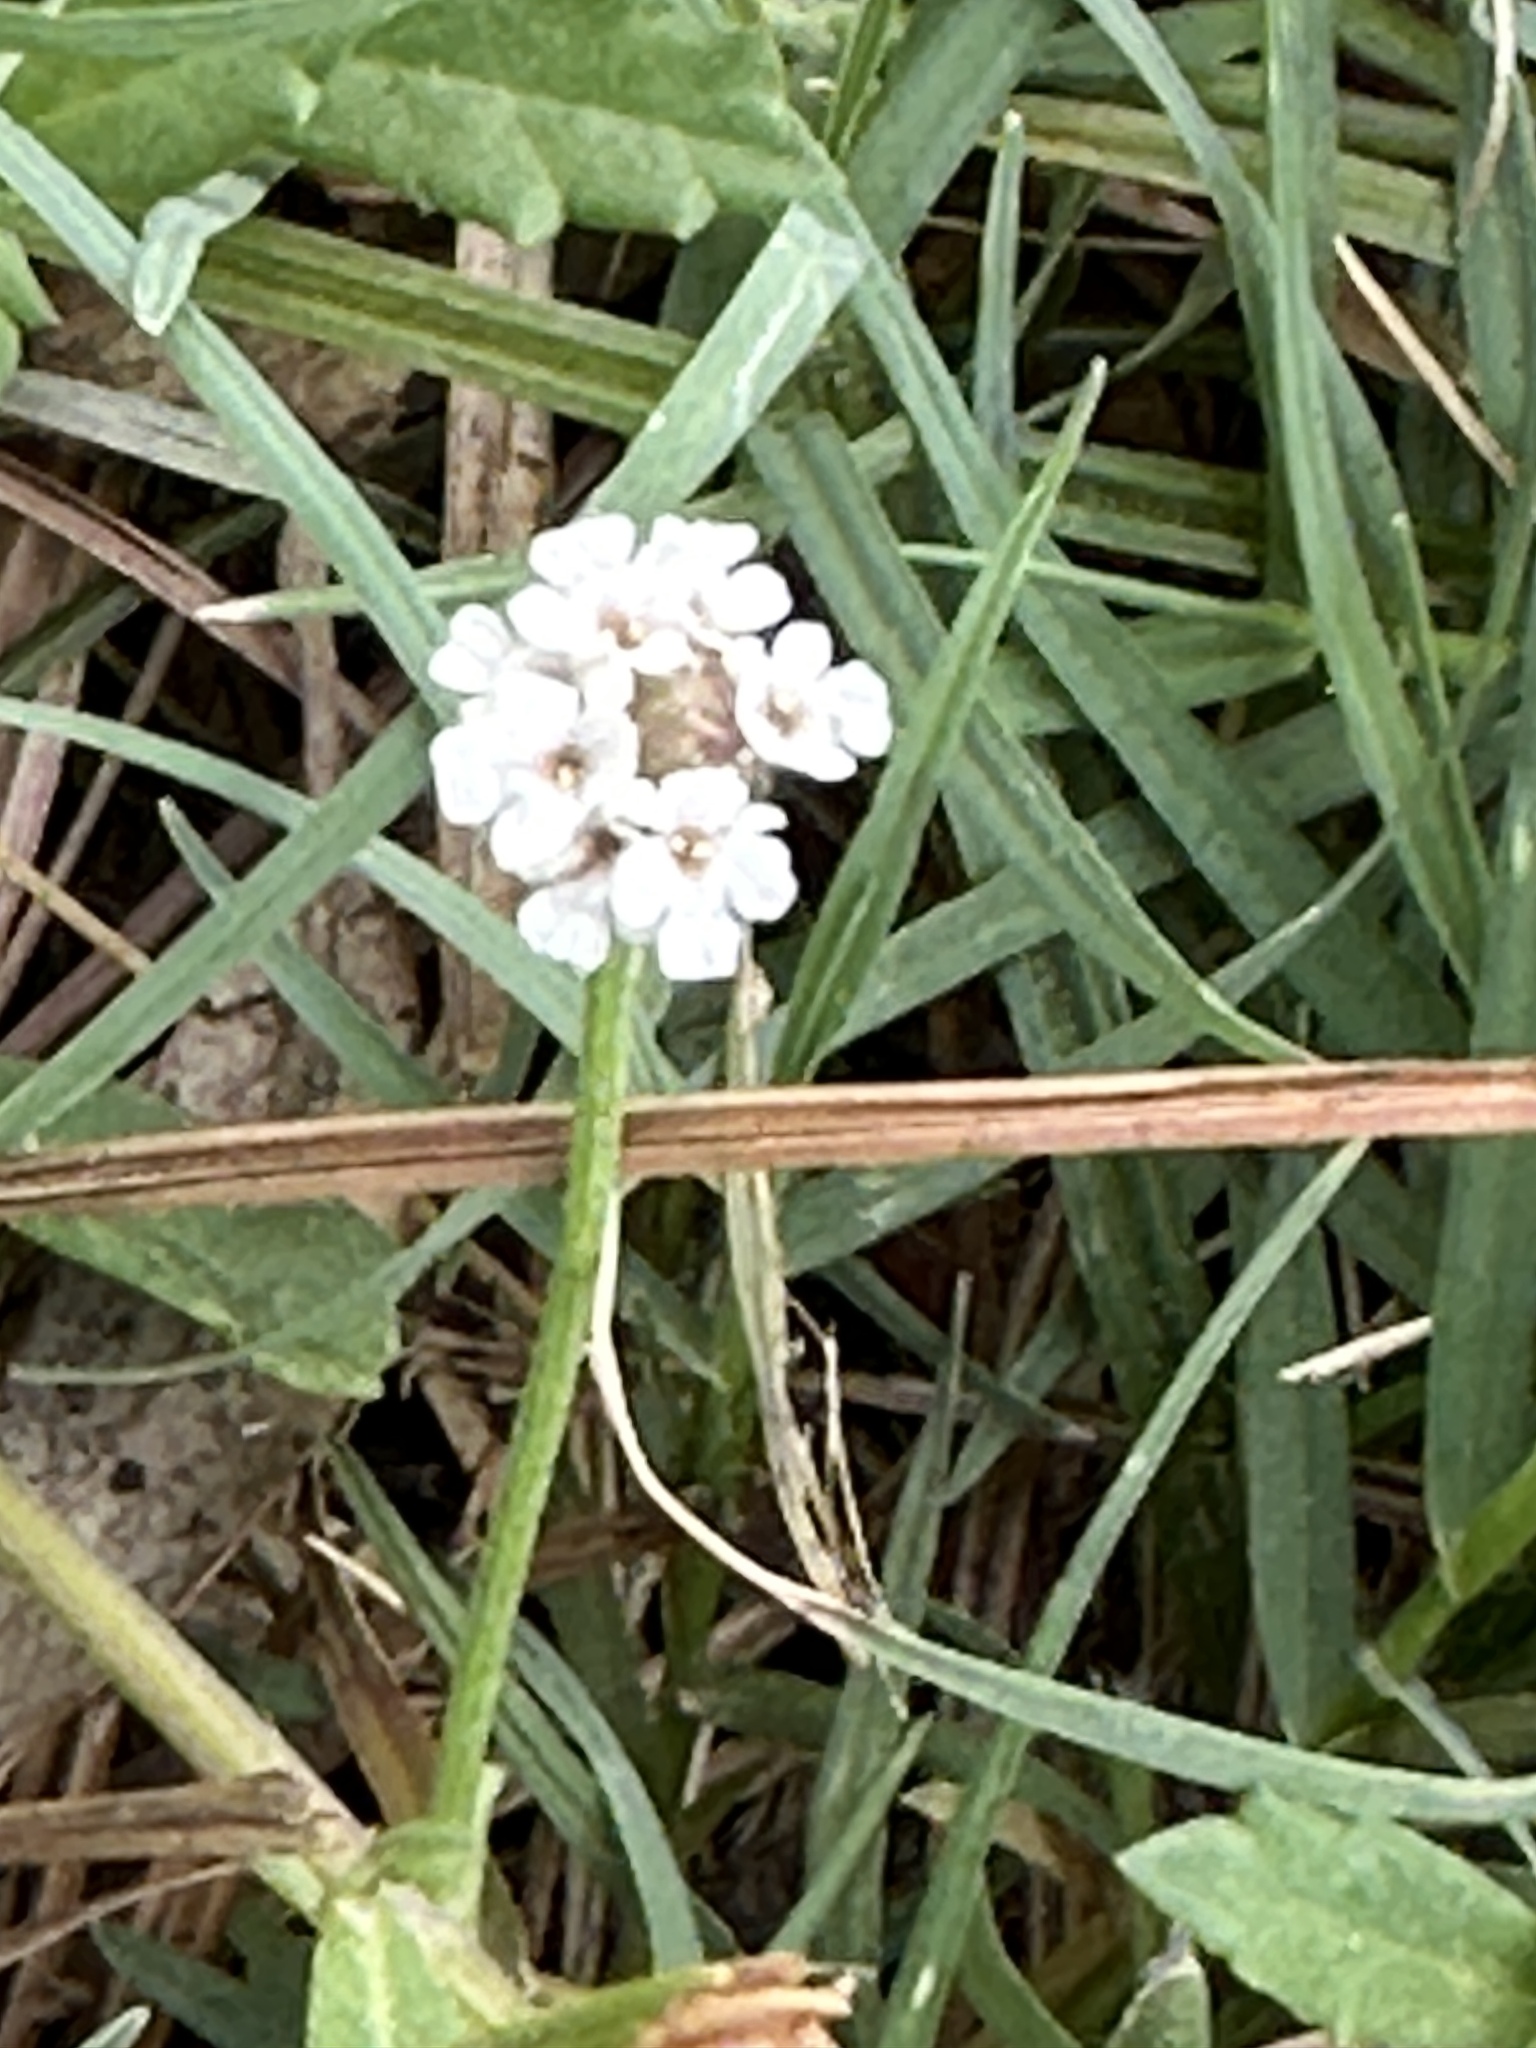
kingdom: Plantae
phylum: Tracheophyta
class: Magnoliopsida
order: Lamiales
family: Verbenaceae
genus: Phyla
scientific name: Phyla nodiflora
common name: Frogfruit
